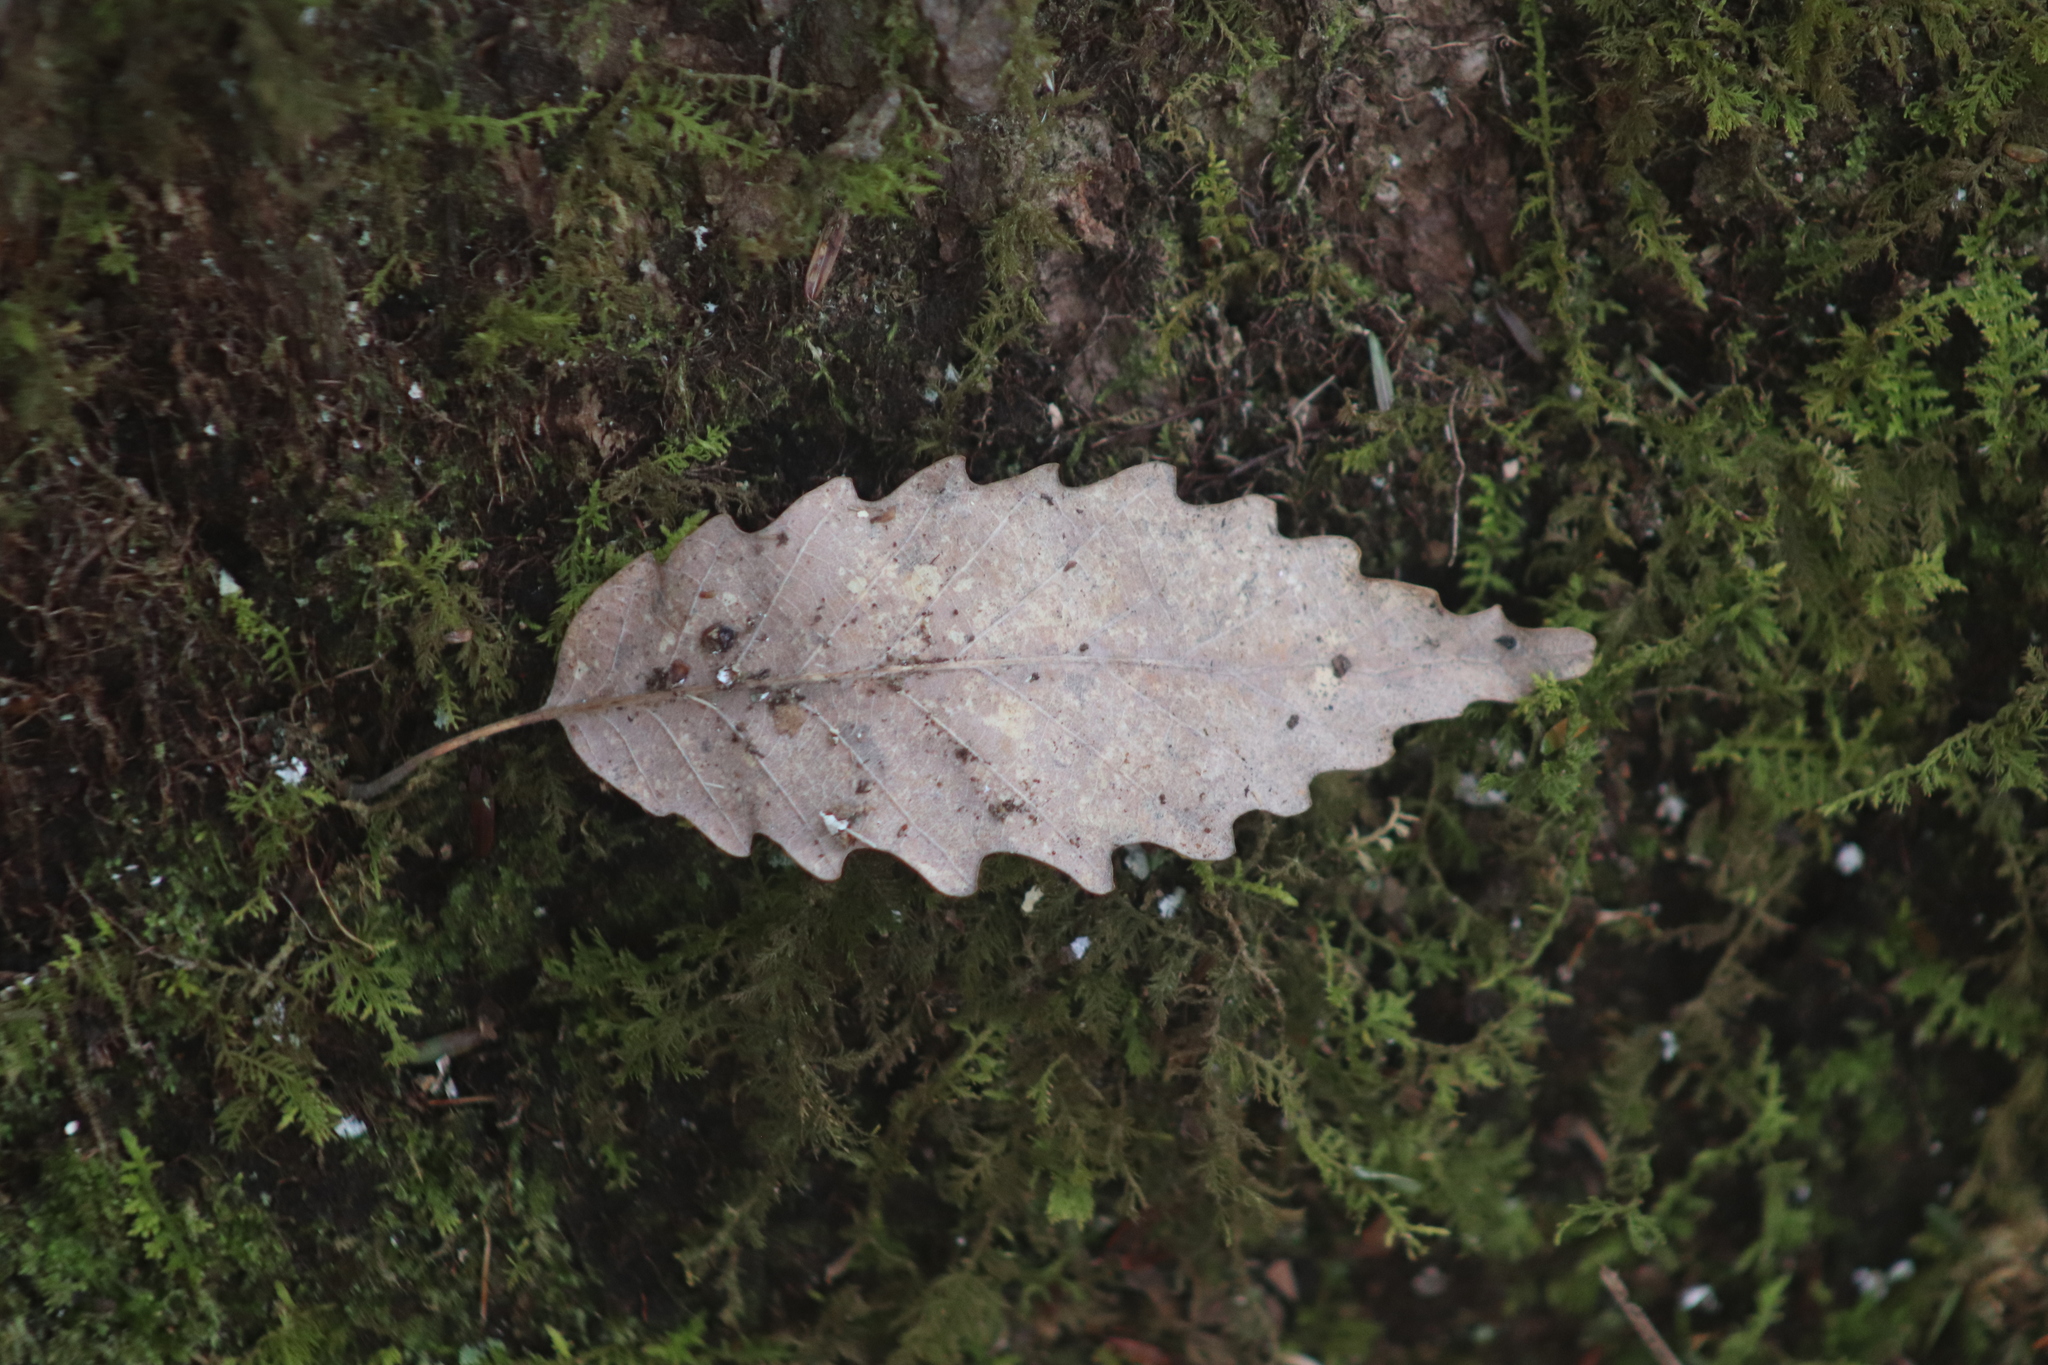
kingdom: Plantae
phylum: Tracheophyta
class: Magnoliopsida
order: Fagales
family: Fagaceae
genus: Quercus
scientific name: Quercus muehlenbergii
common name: Chinkapin oak
